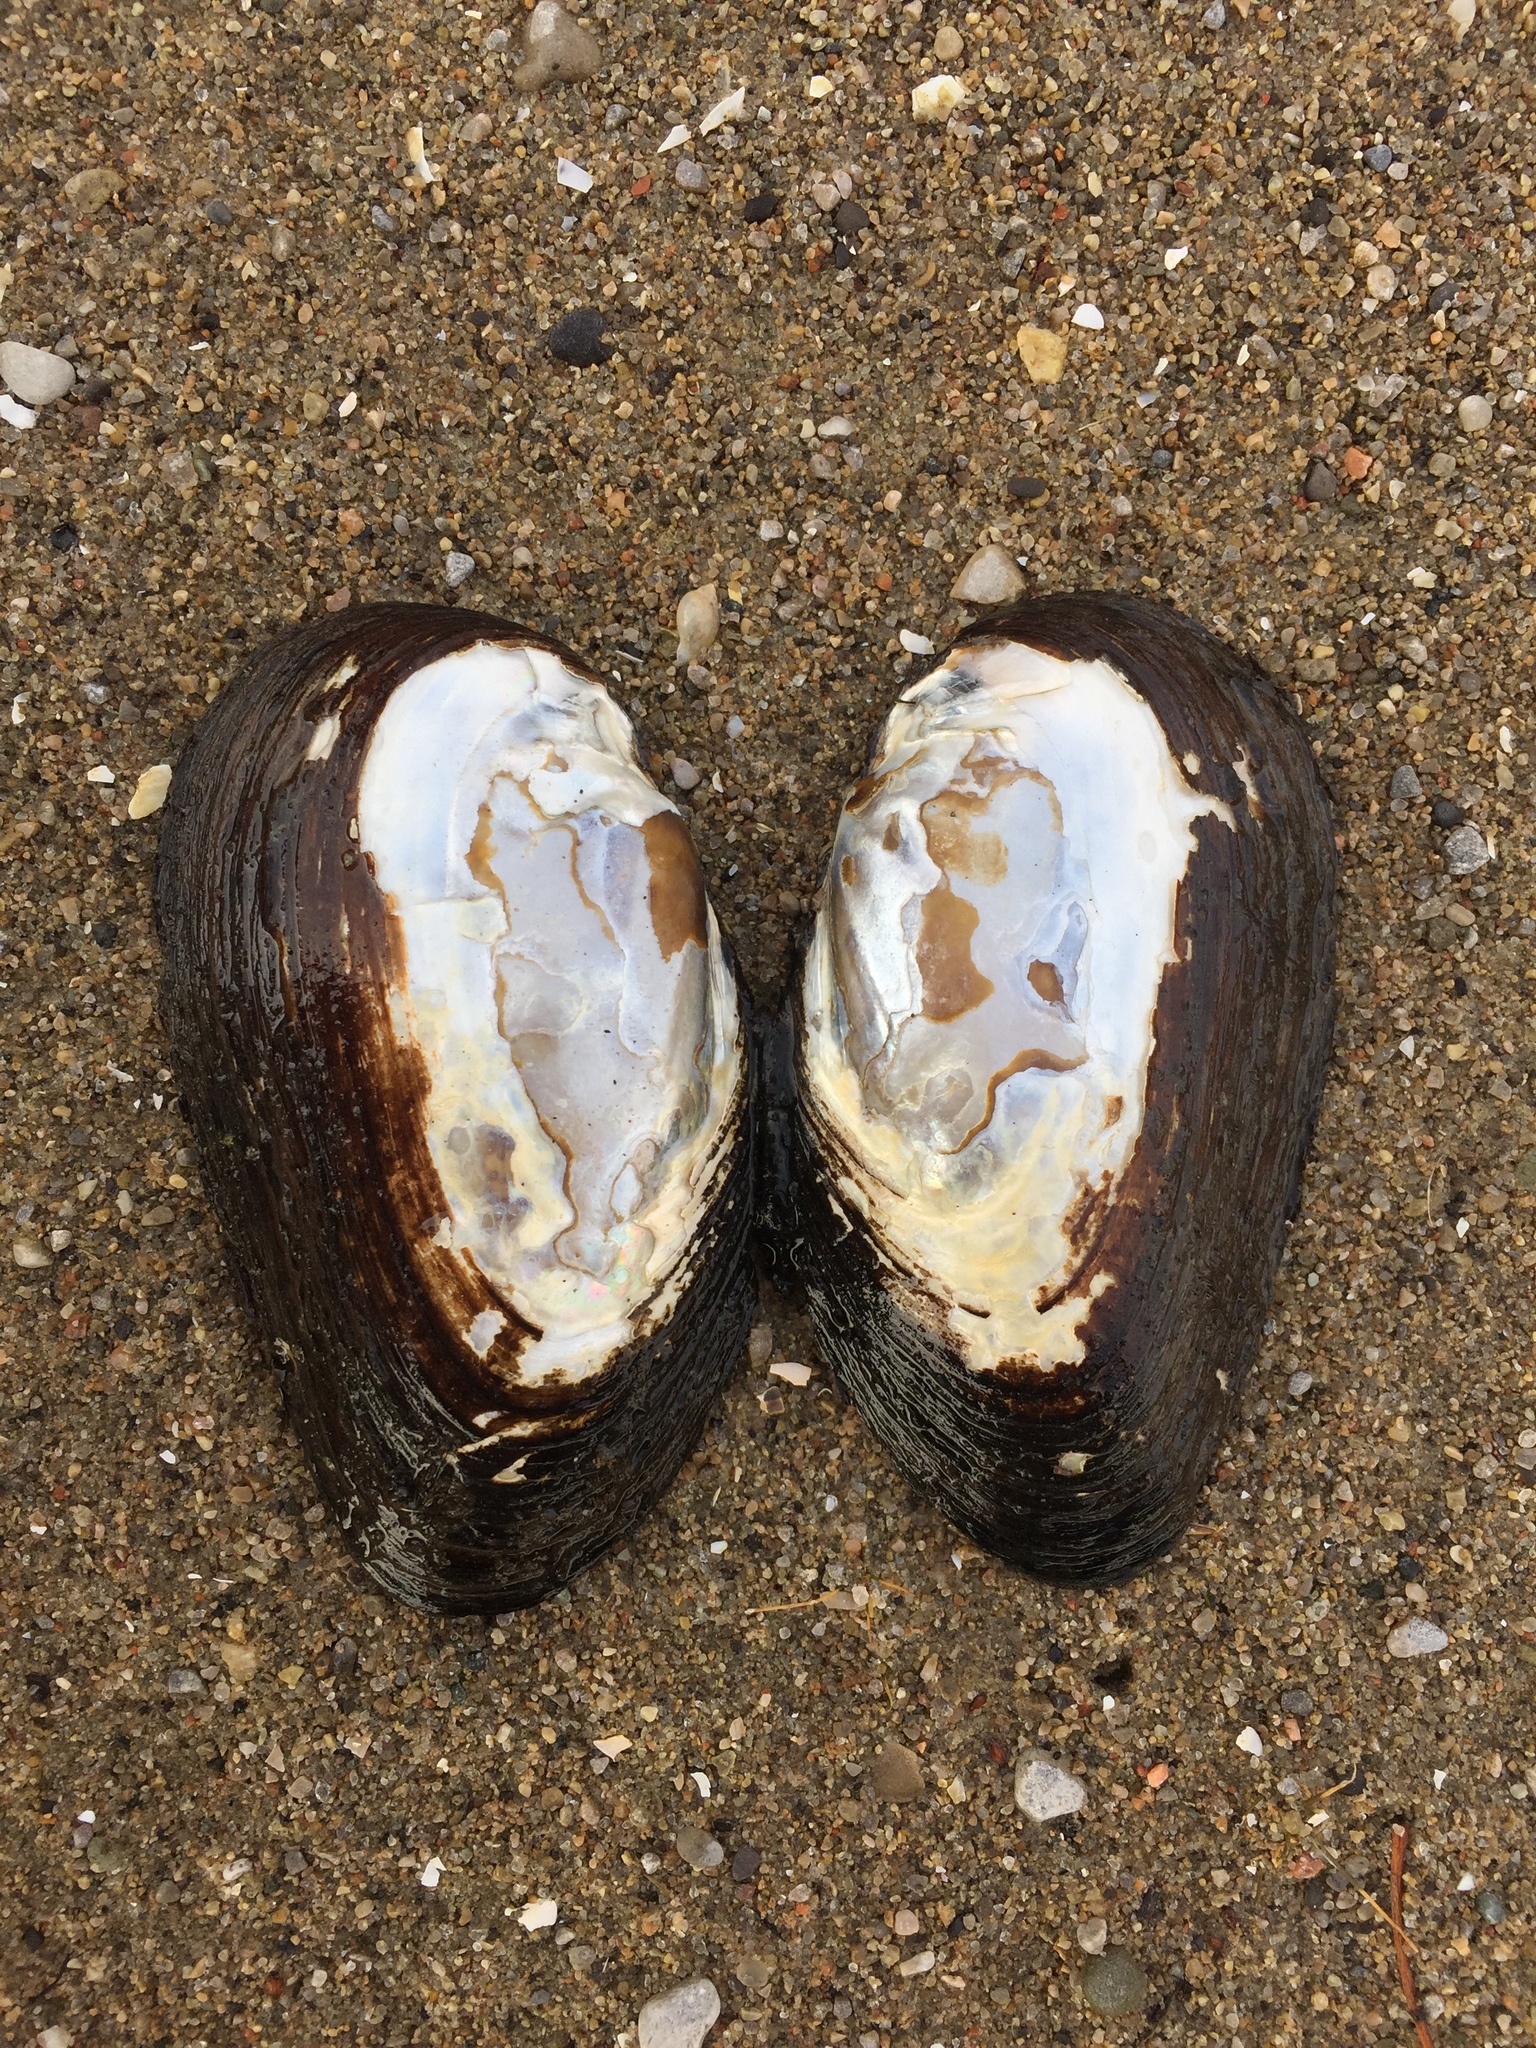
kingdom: Animalia
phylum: Mollusca
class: Bivalvia
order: Unionida
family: Unionidae
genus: Elliptio
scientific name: Elliptio complanata
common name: Eastern elliptio
